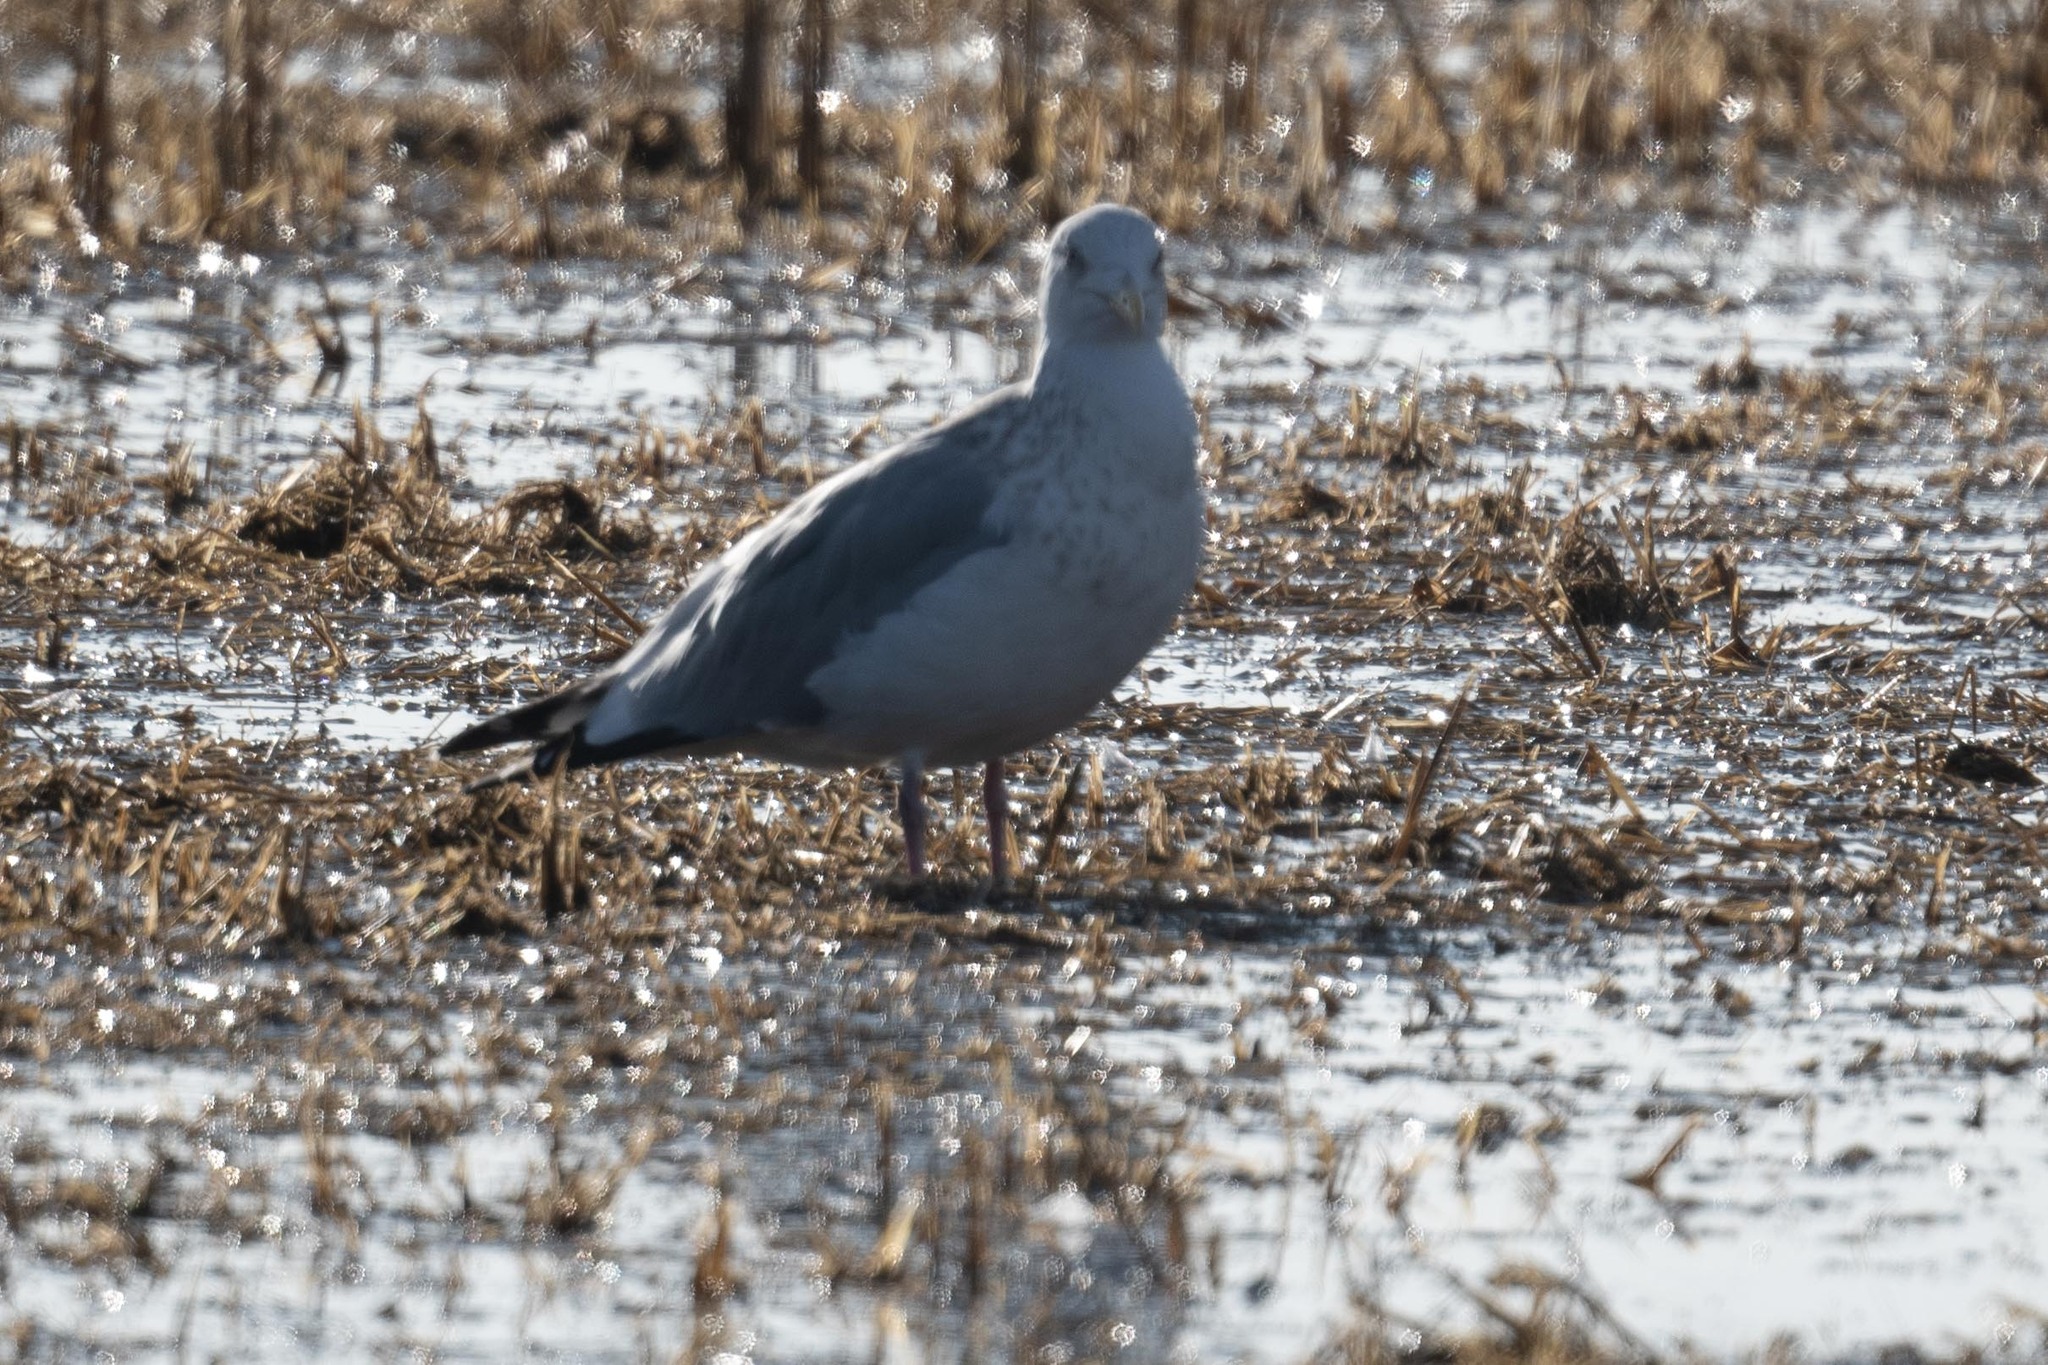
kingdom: Animalia
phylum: Chordata
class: Aves
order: Charadriiformes
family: Laridae
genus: Larus
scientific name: Larus argentatus
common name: Herring gull
